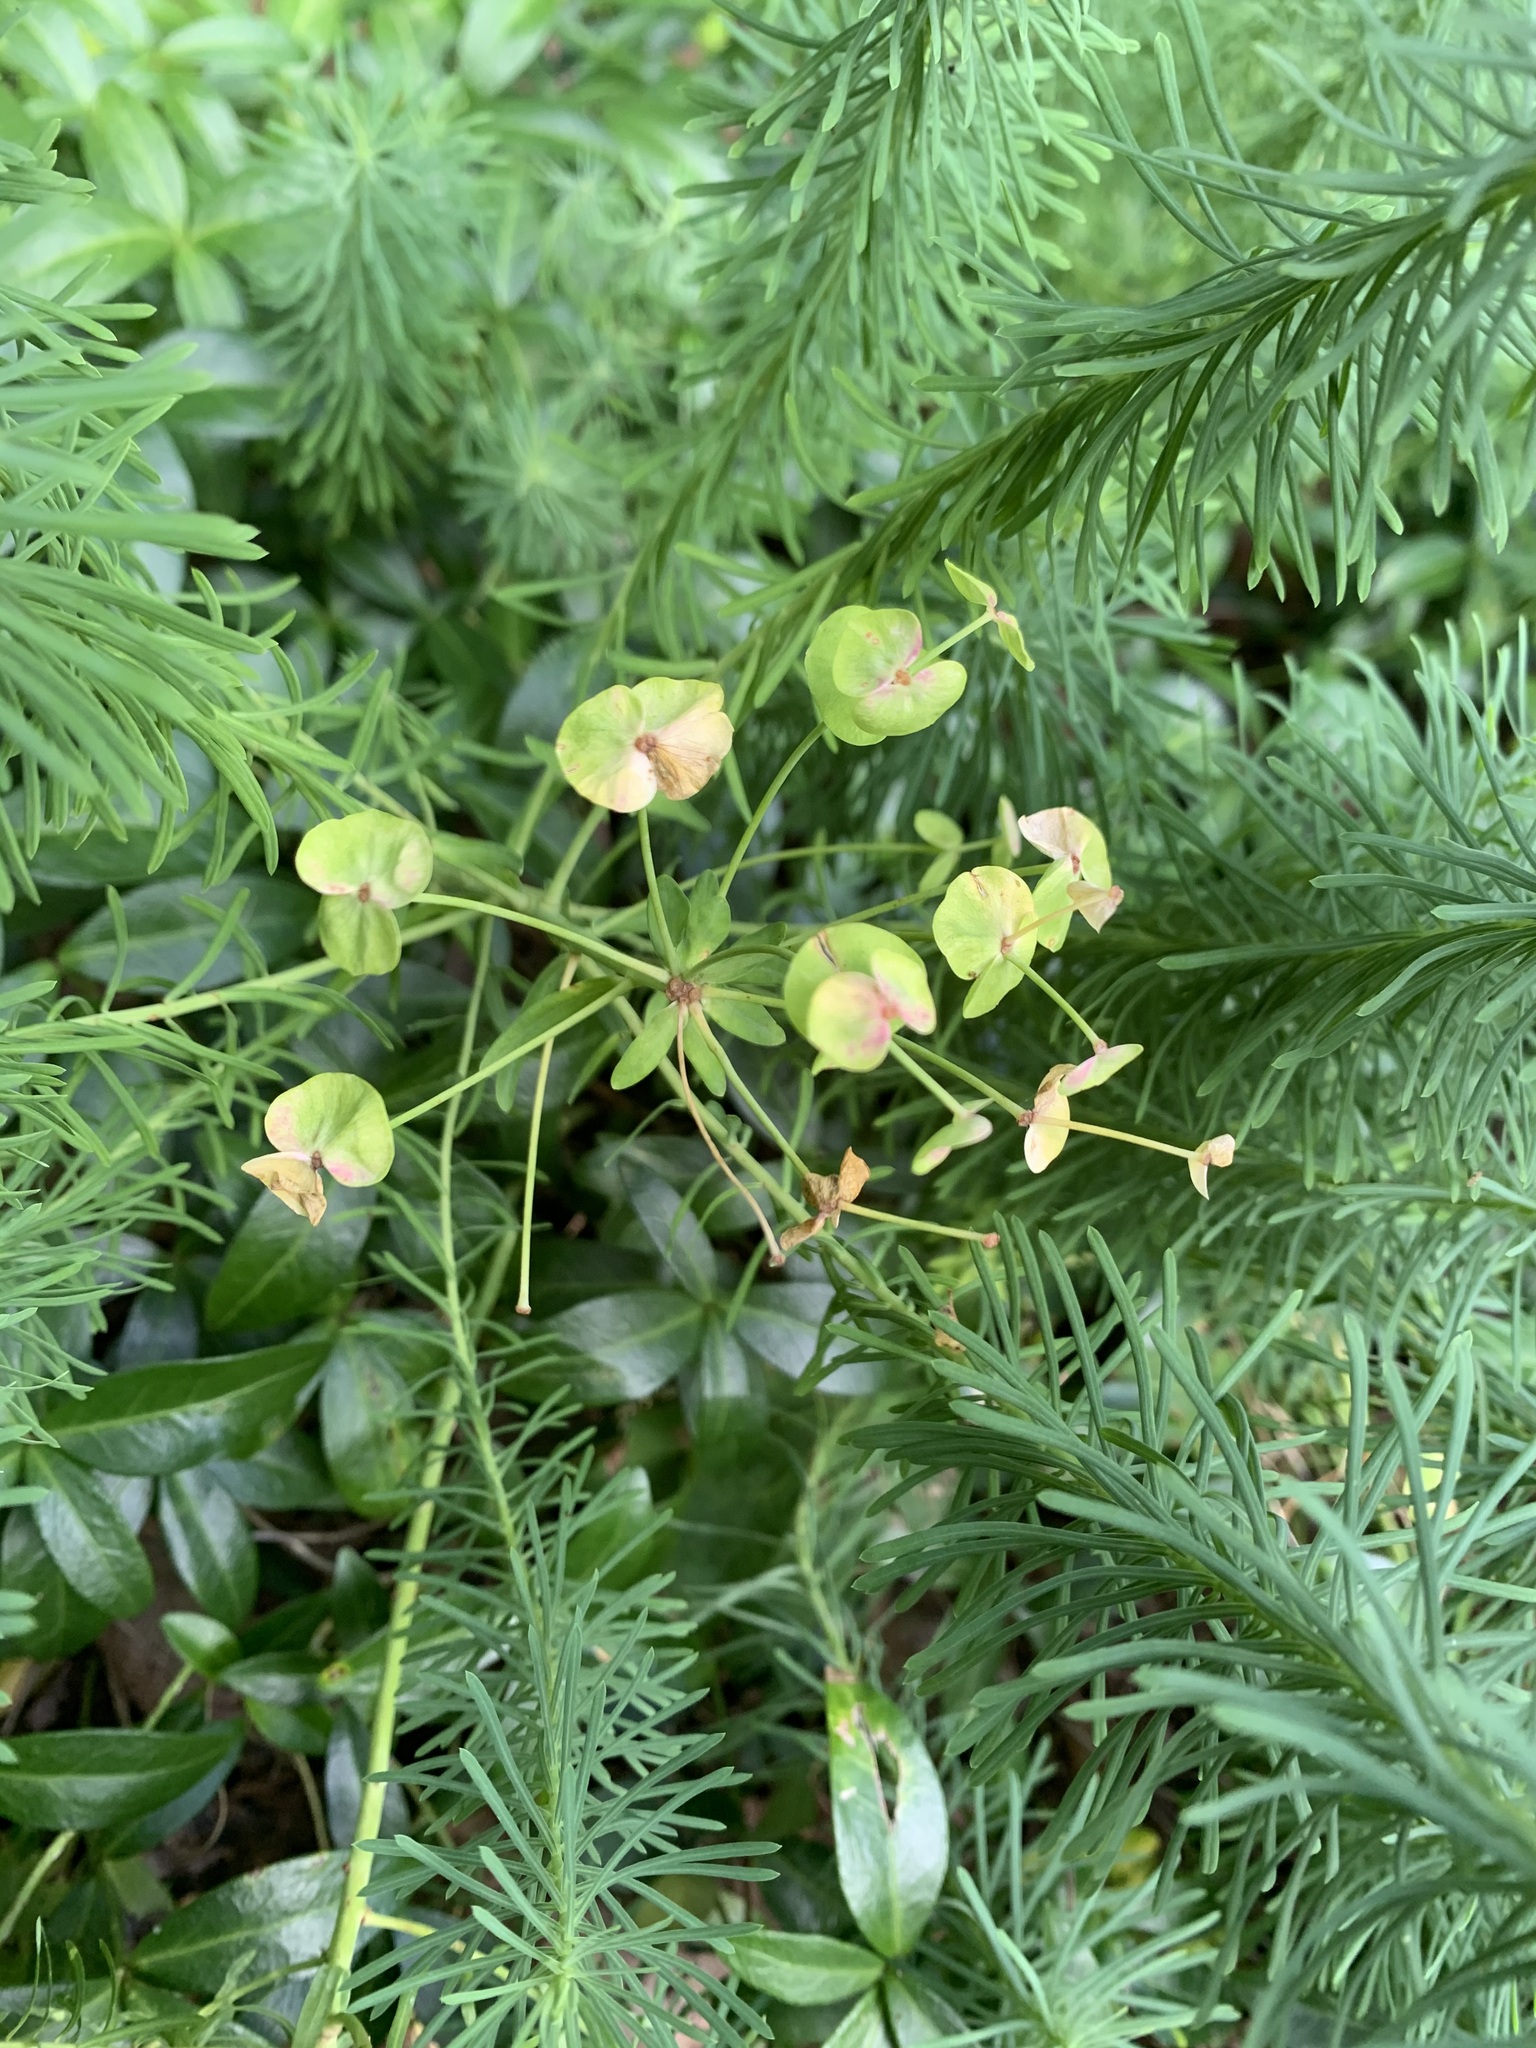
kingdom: Plantae
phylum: Tracheophyta
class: Magnoliopsida
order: Malpighiales
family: Euphorbiaceae
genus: Euphorbia
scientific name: Euphorbia cyparissias
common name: Cypress spurge
